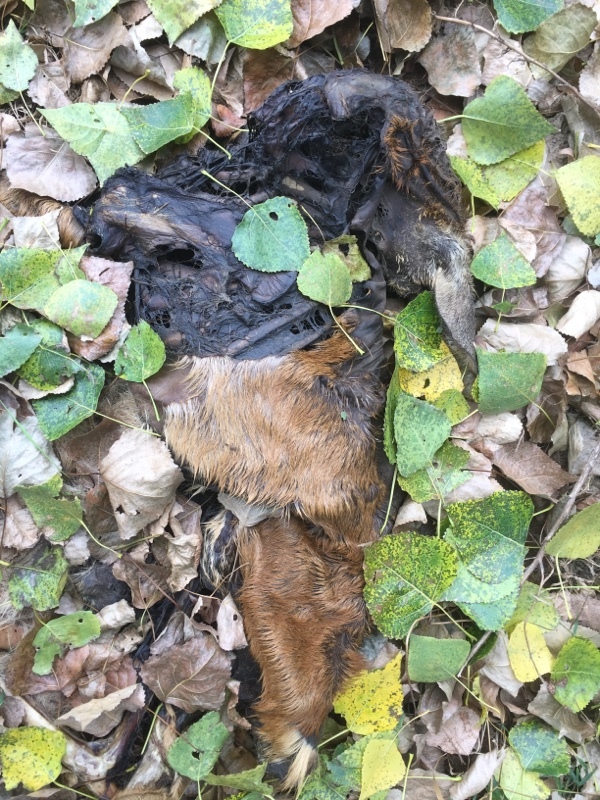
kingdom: Animalia
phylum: Chordata
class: Mammalia
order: Artiodactyla
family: Cervidae
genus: Capreolus
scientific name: Capreolus capreolus
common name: Western roe deer
